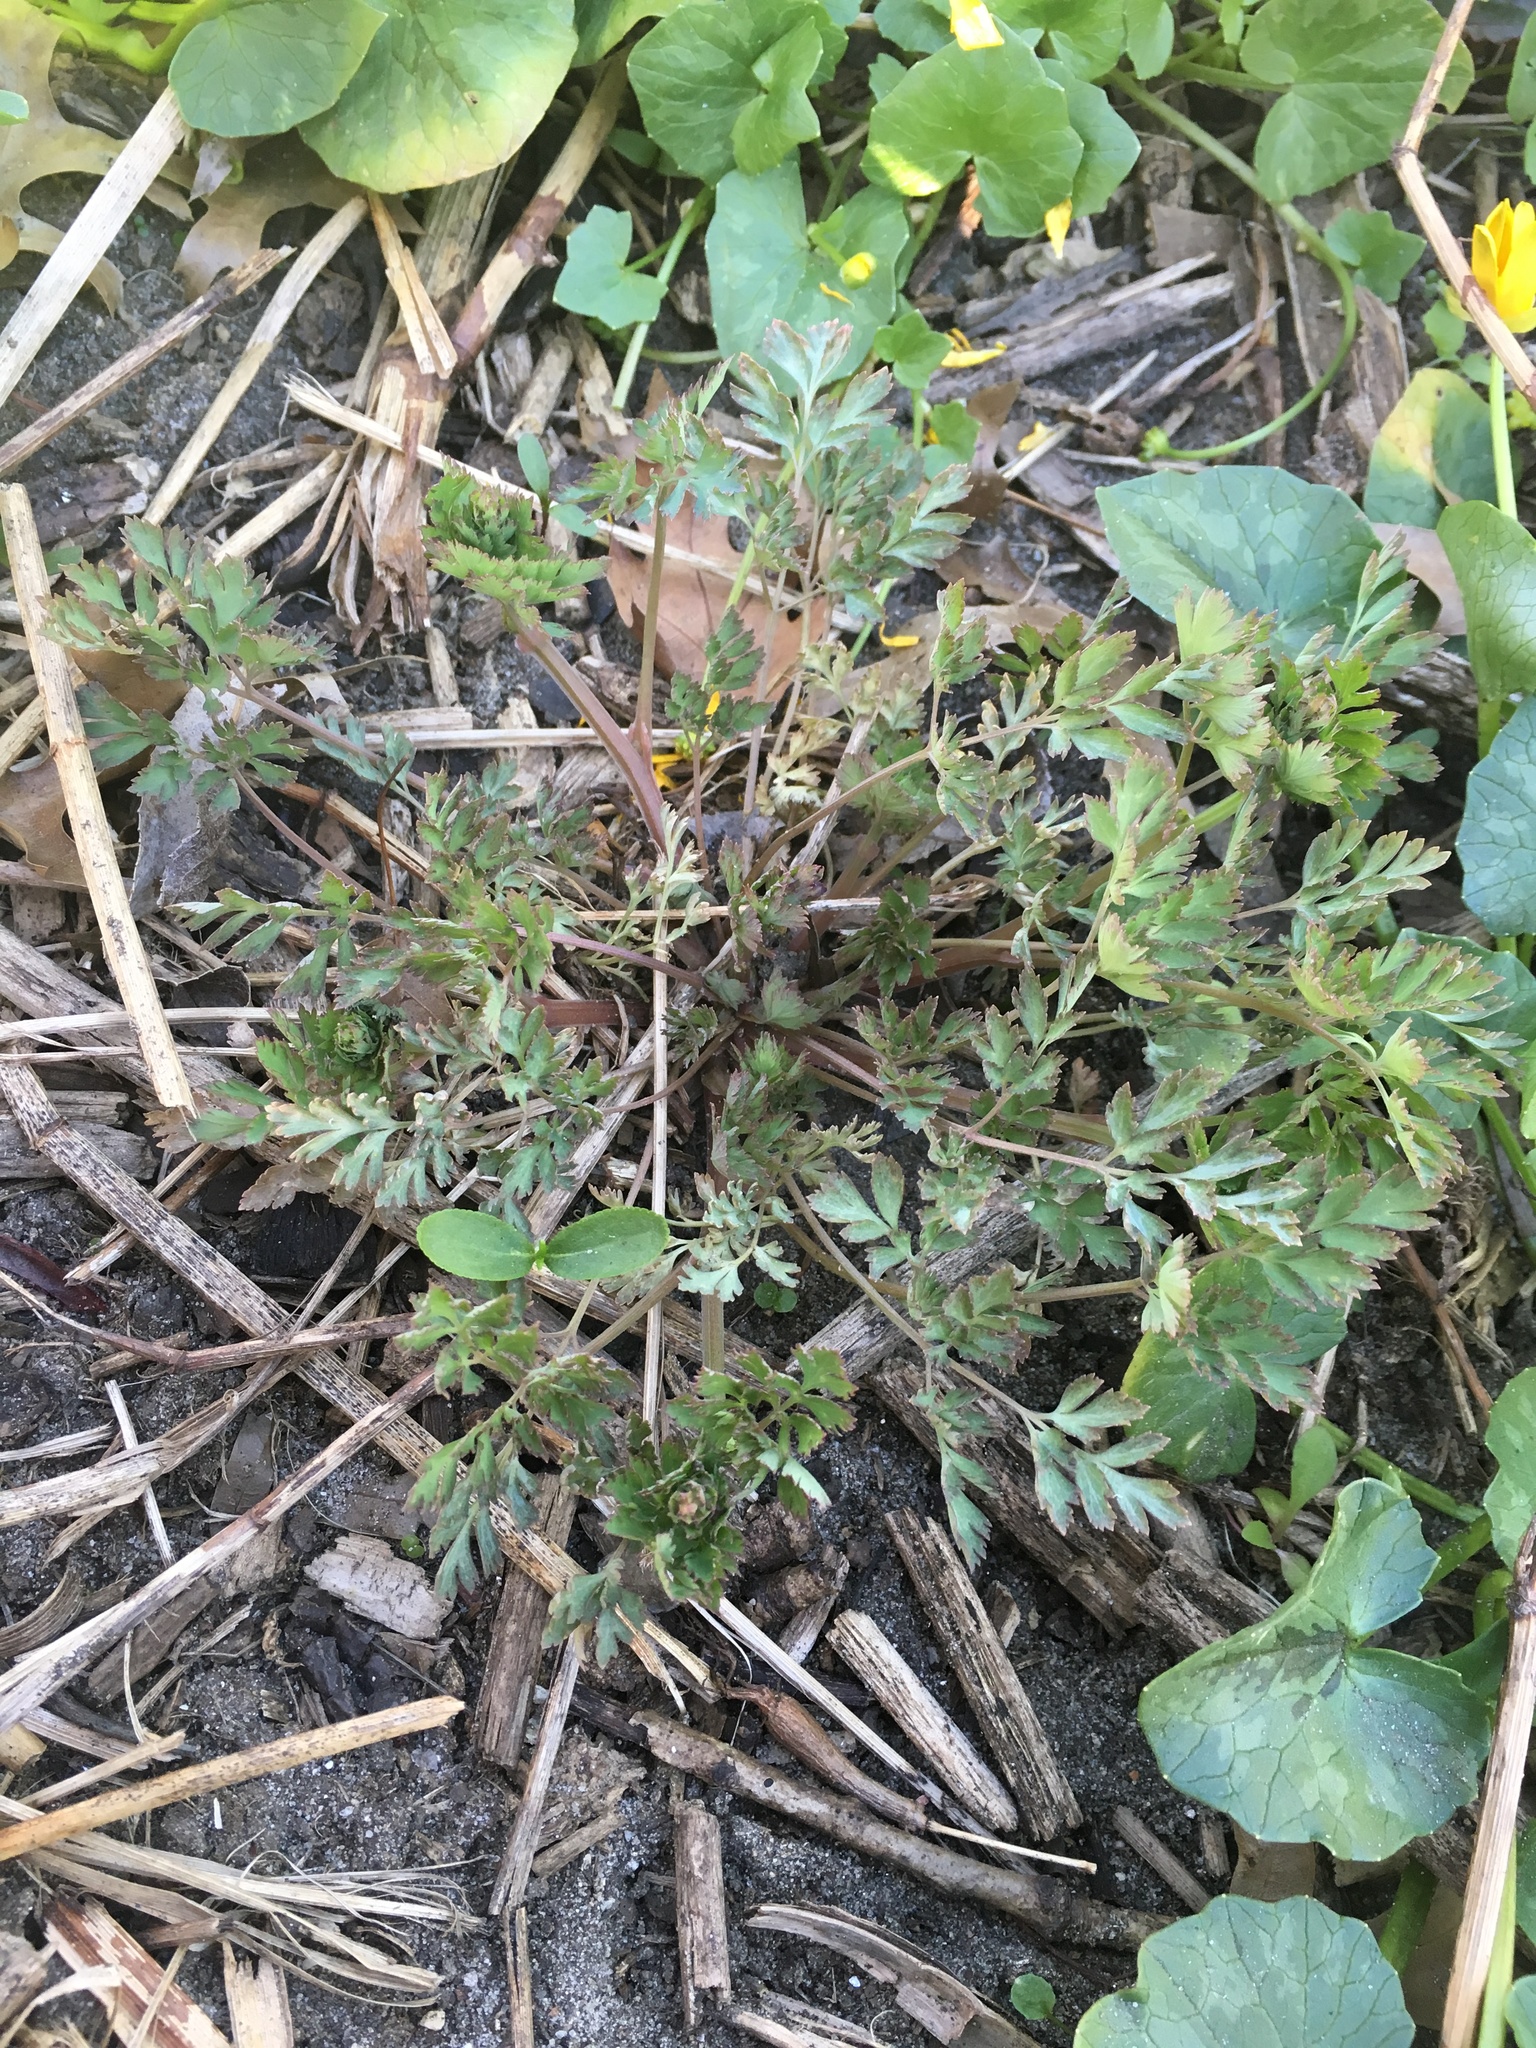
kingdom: Plantae
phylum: Tracheophyta
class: Magnoliopsida
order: Ranunculales
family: Papaveraceae
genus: Corydalis
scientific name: Corydalis incisa
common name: Incised fumewort
